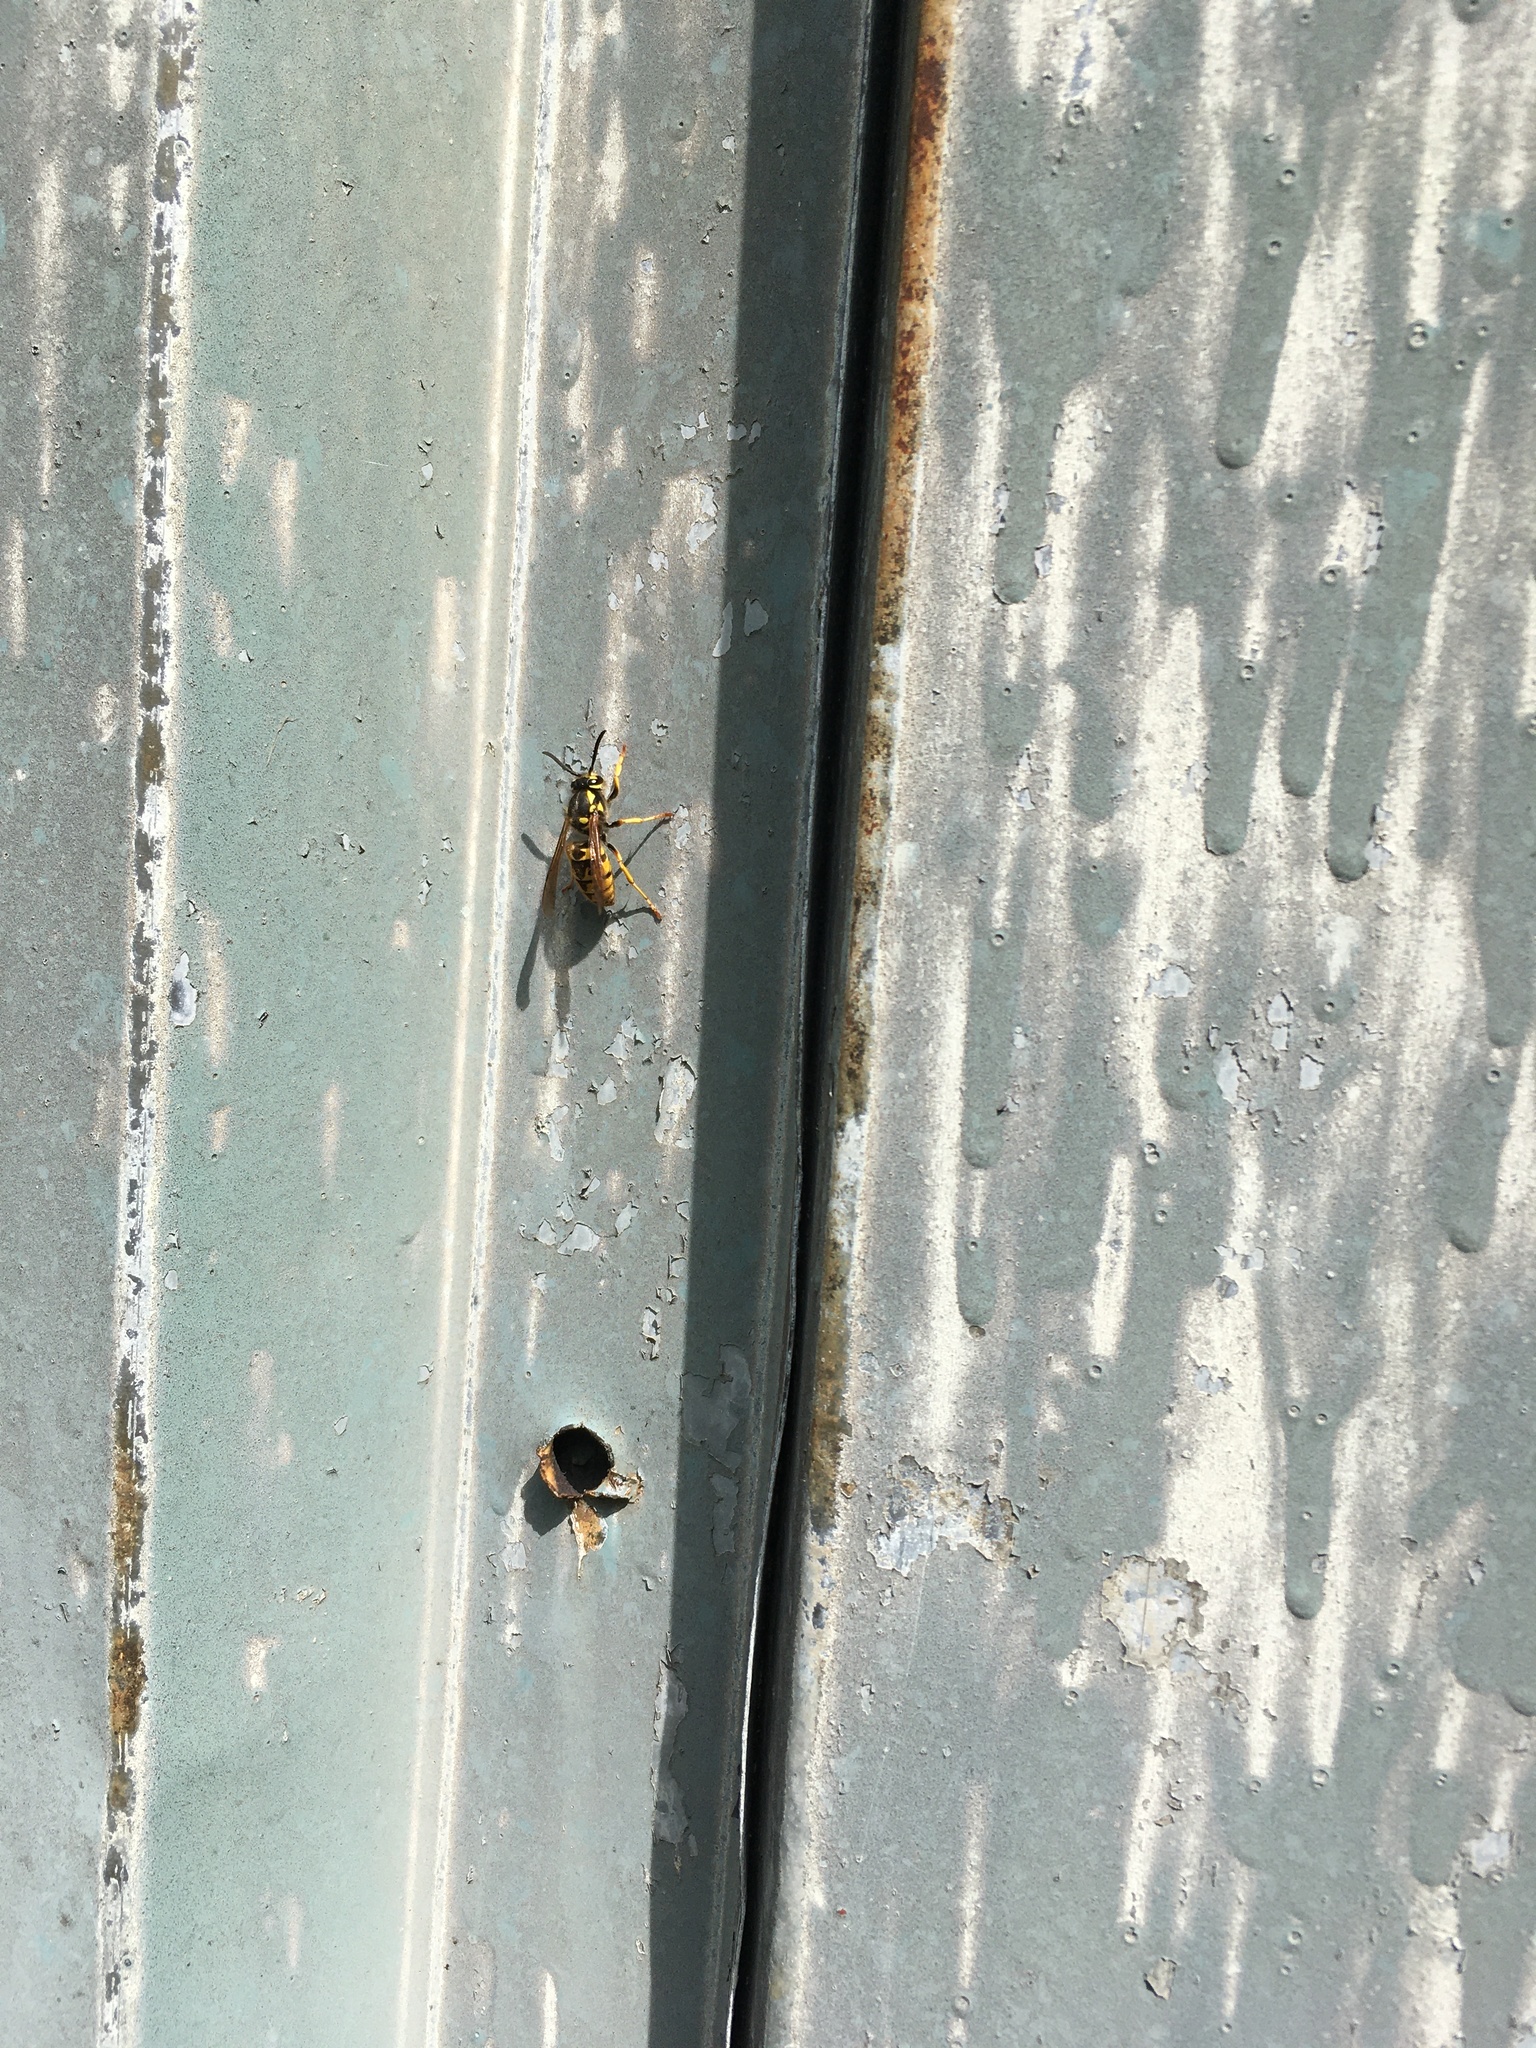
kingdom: Animalia
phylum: Arthropoda
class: Insecta
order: Hymenoptera
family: Vespidae
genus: Vespula
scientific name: Vespula germanica
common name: German wasp
